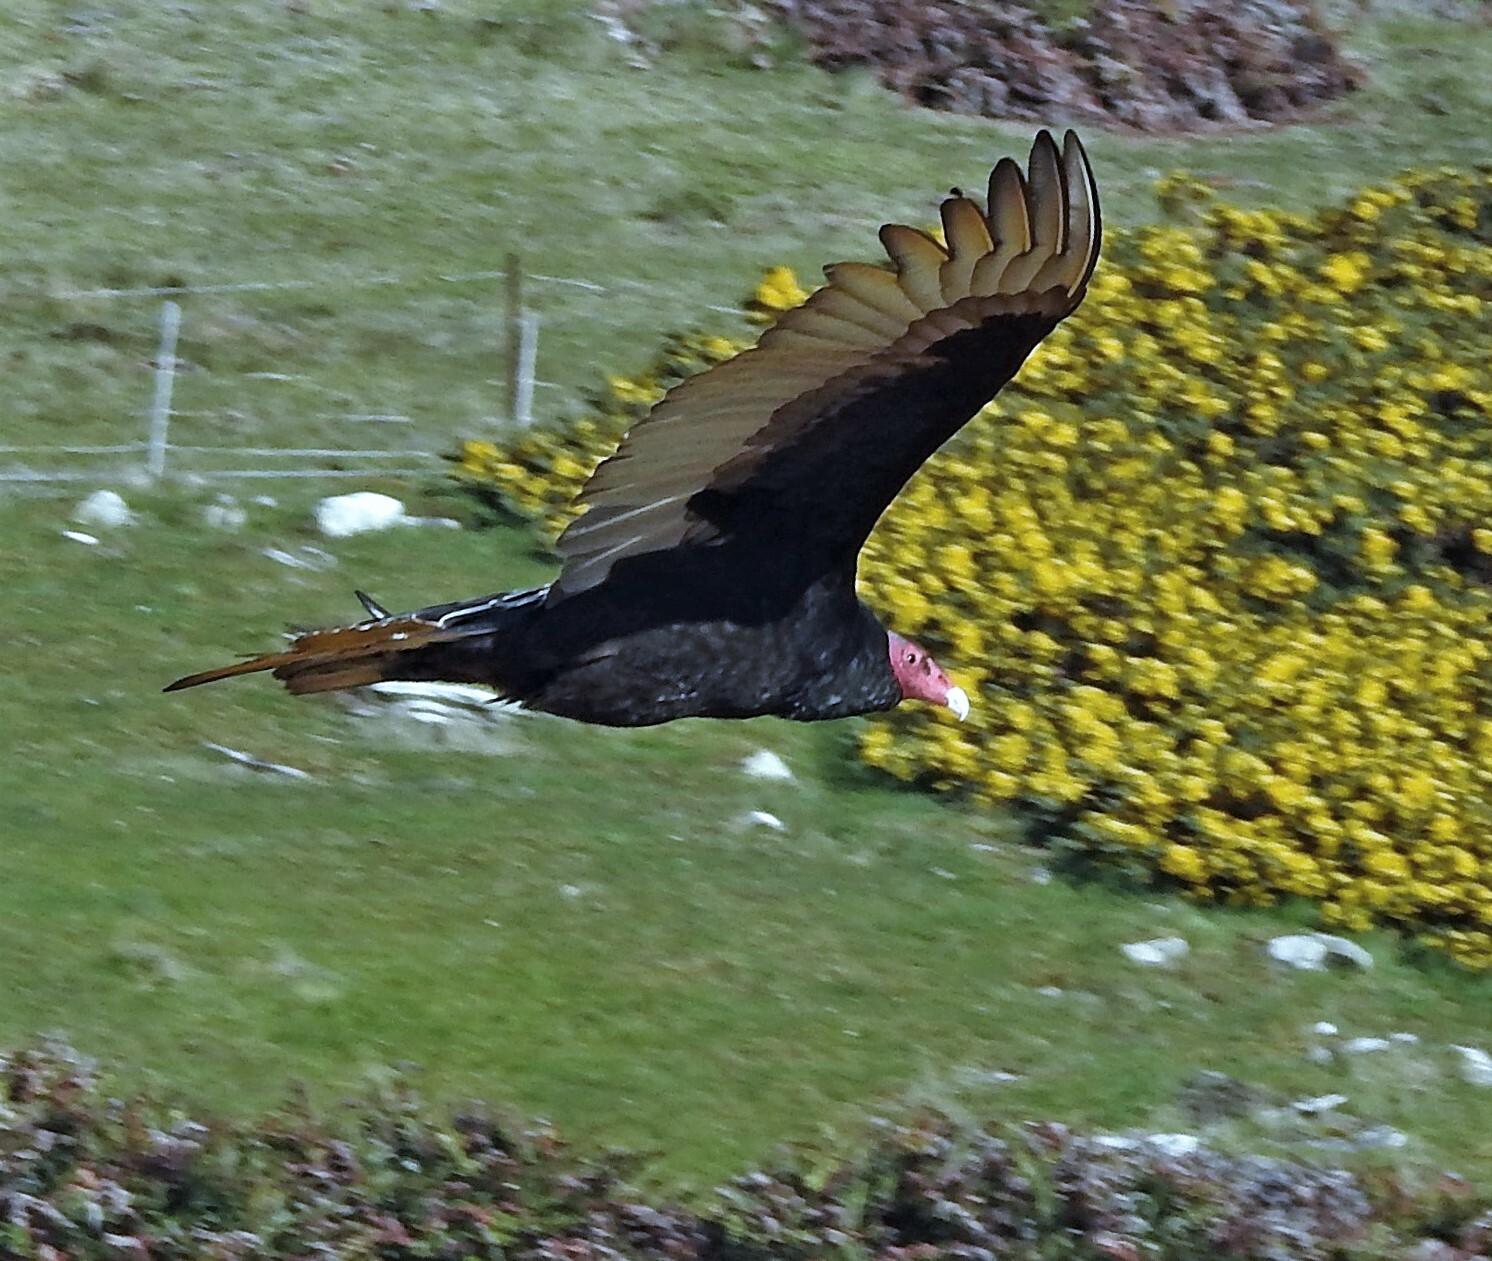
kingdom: Animalia
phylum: Chordata
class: Aves
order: Accipitriformes
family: Cathartidae
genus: Cathartes
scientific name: Cathartes aura
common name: Turkey vulture
